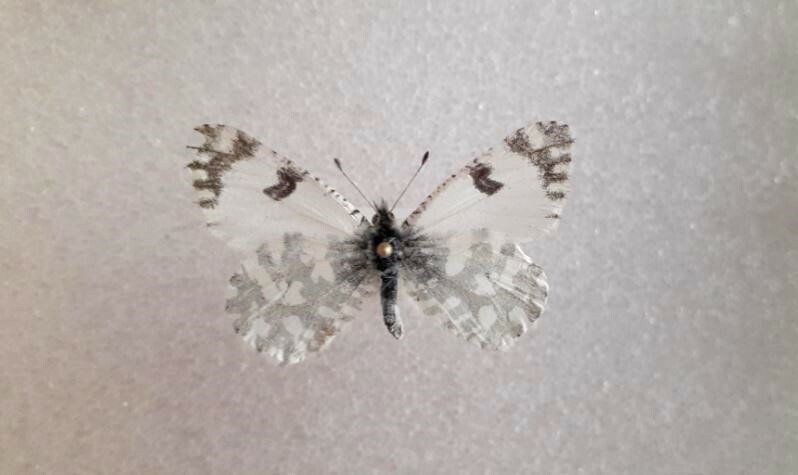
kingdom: Animalia
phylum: Arthropoda
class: Insecta
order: Lepidoptera
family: Pieridae
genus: Euchloe
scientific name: Euchloe lotta
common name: Desert marble
